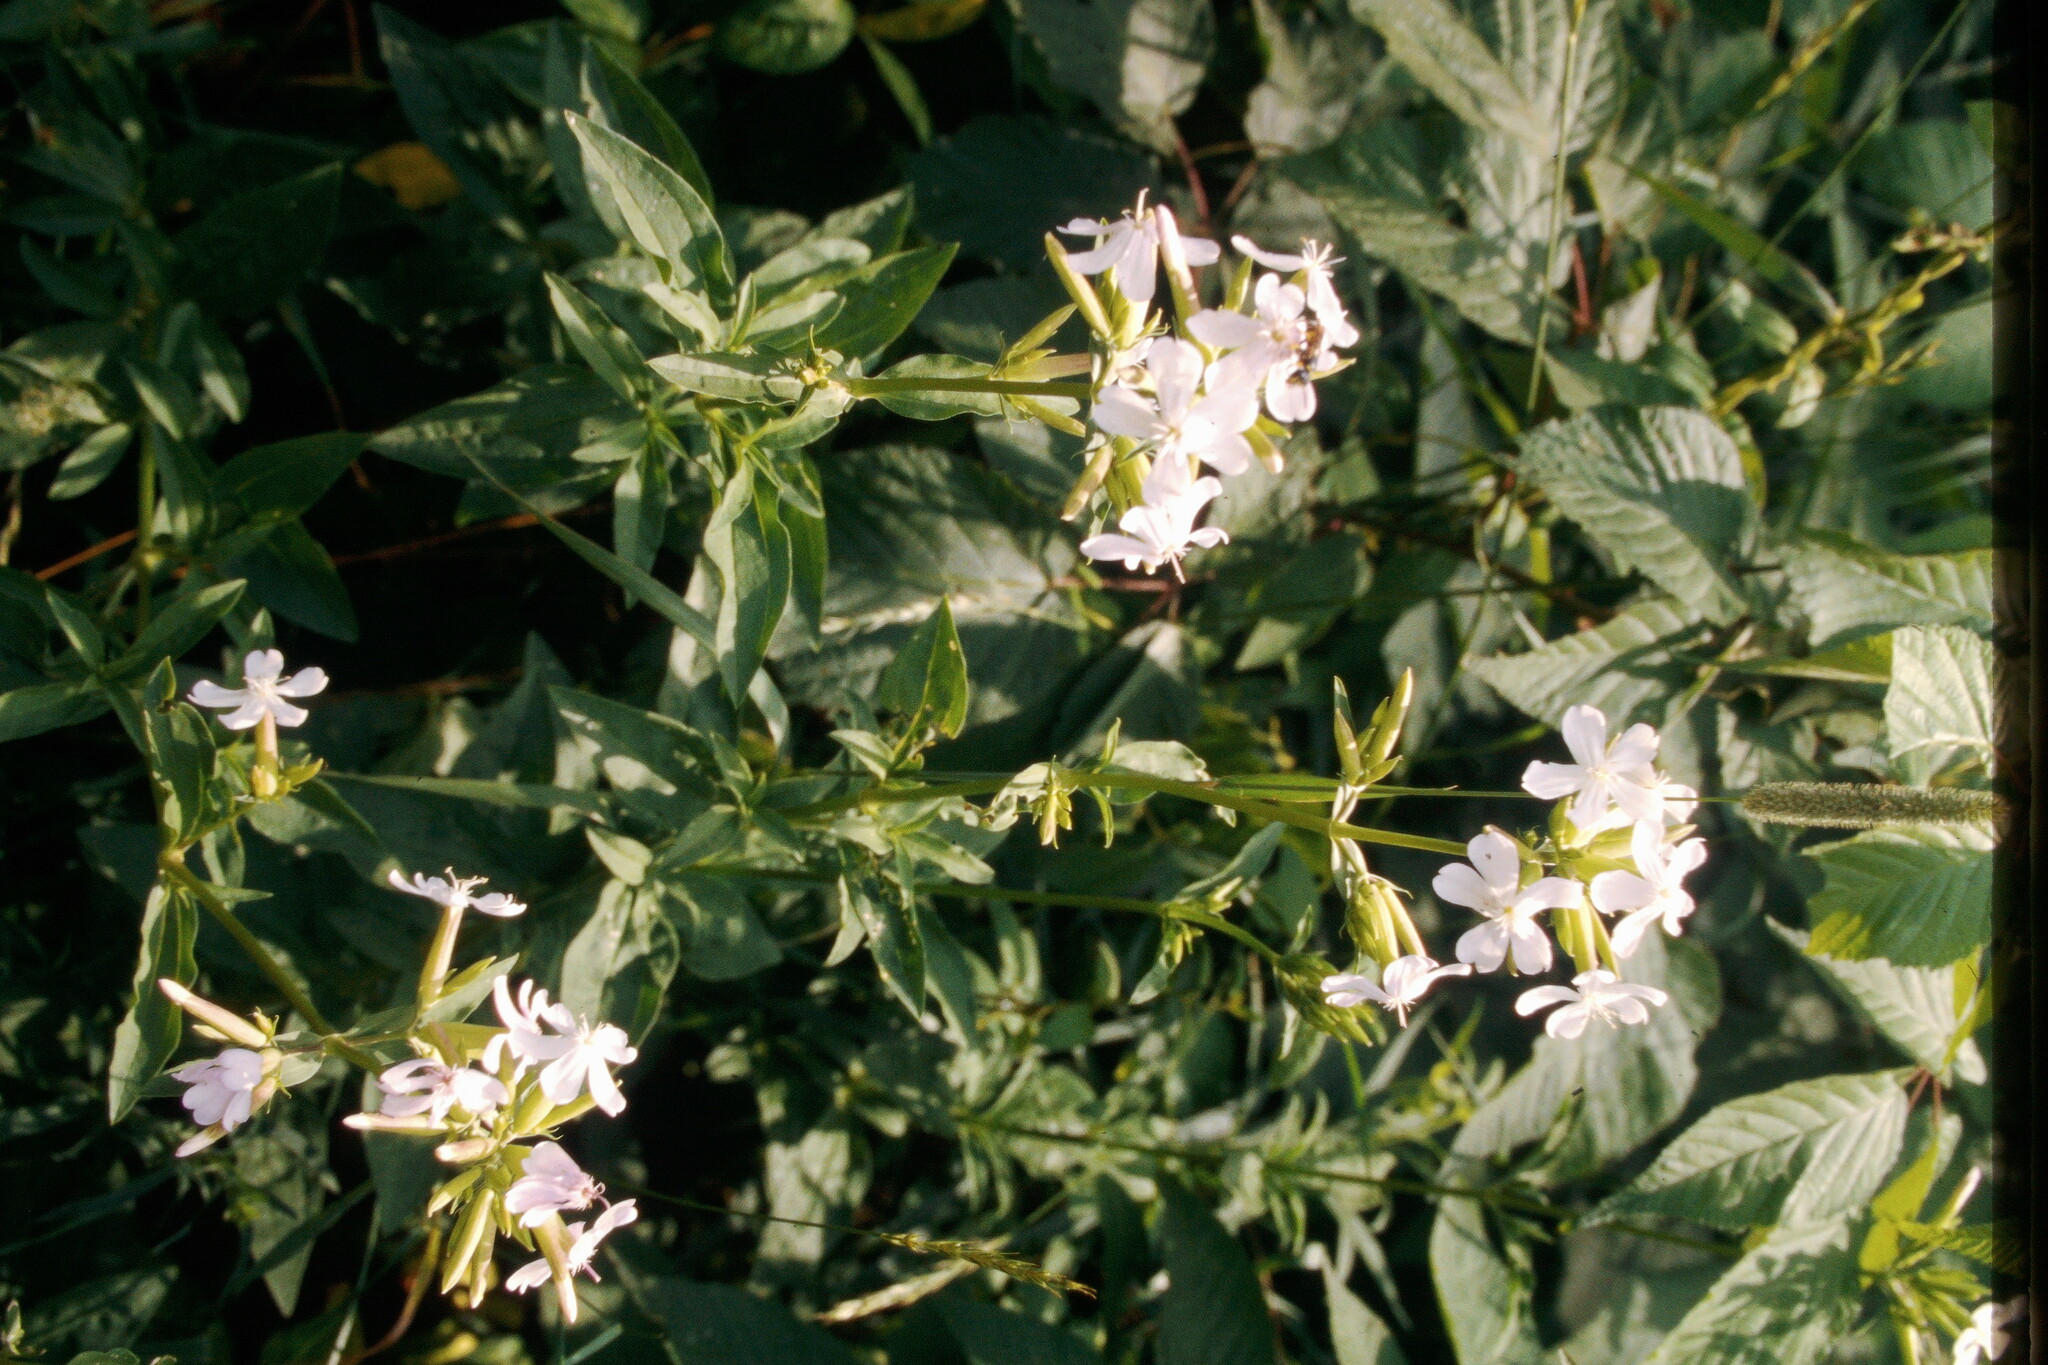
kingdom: Plantae
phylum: Tracheophyta
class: Magnoliopsida
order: Caryophyllales
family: Caryophyllaceae
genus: Saponaria
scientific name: Saponaria officinalis
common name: Soapwort
